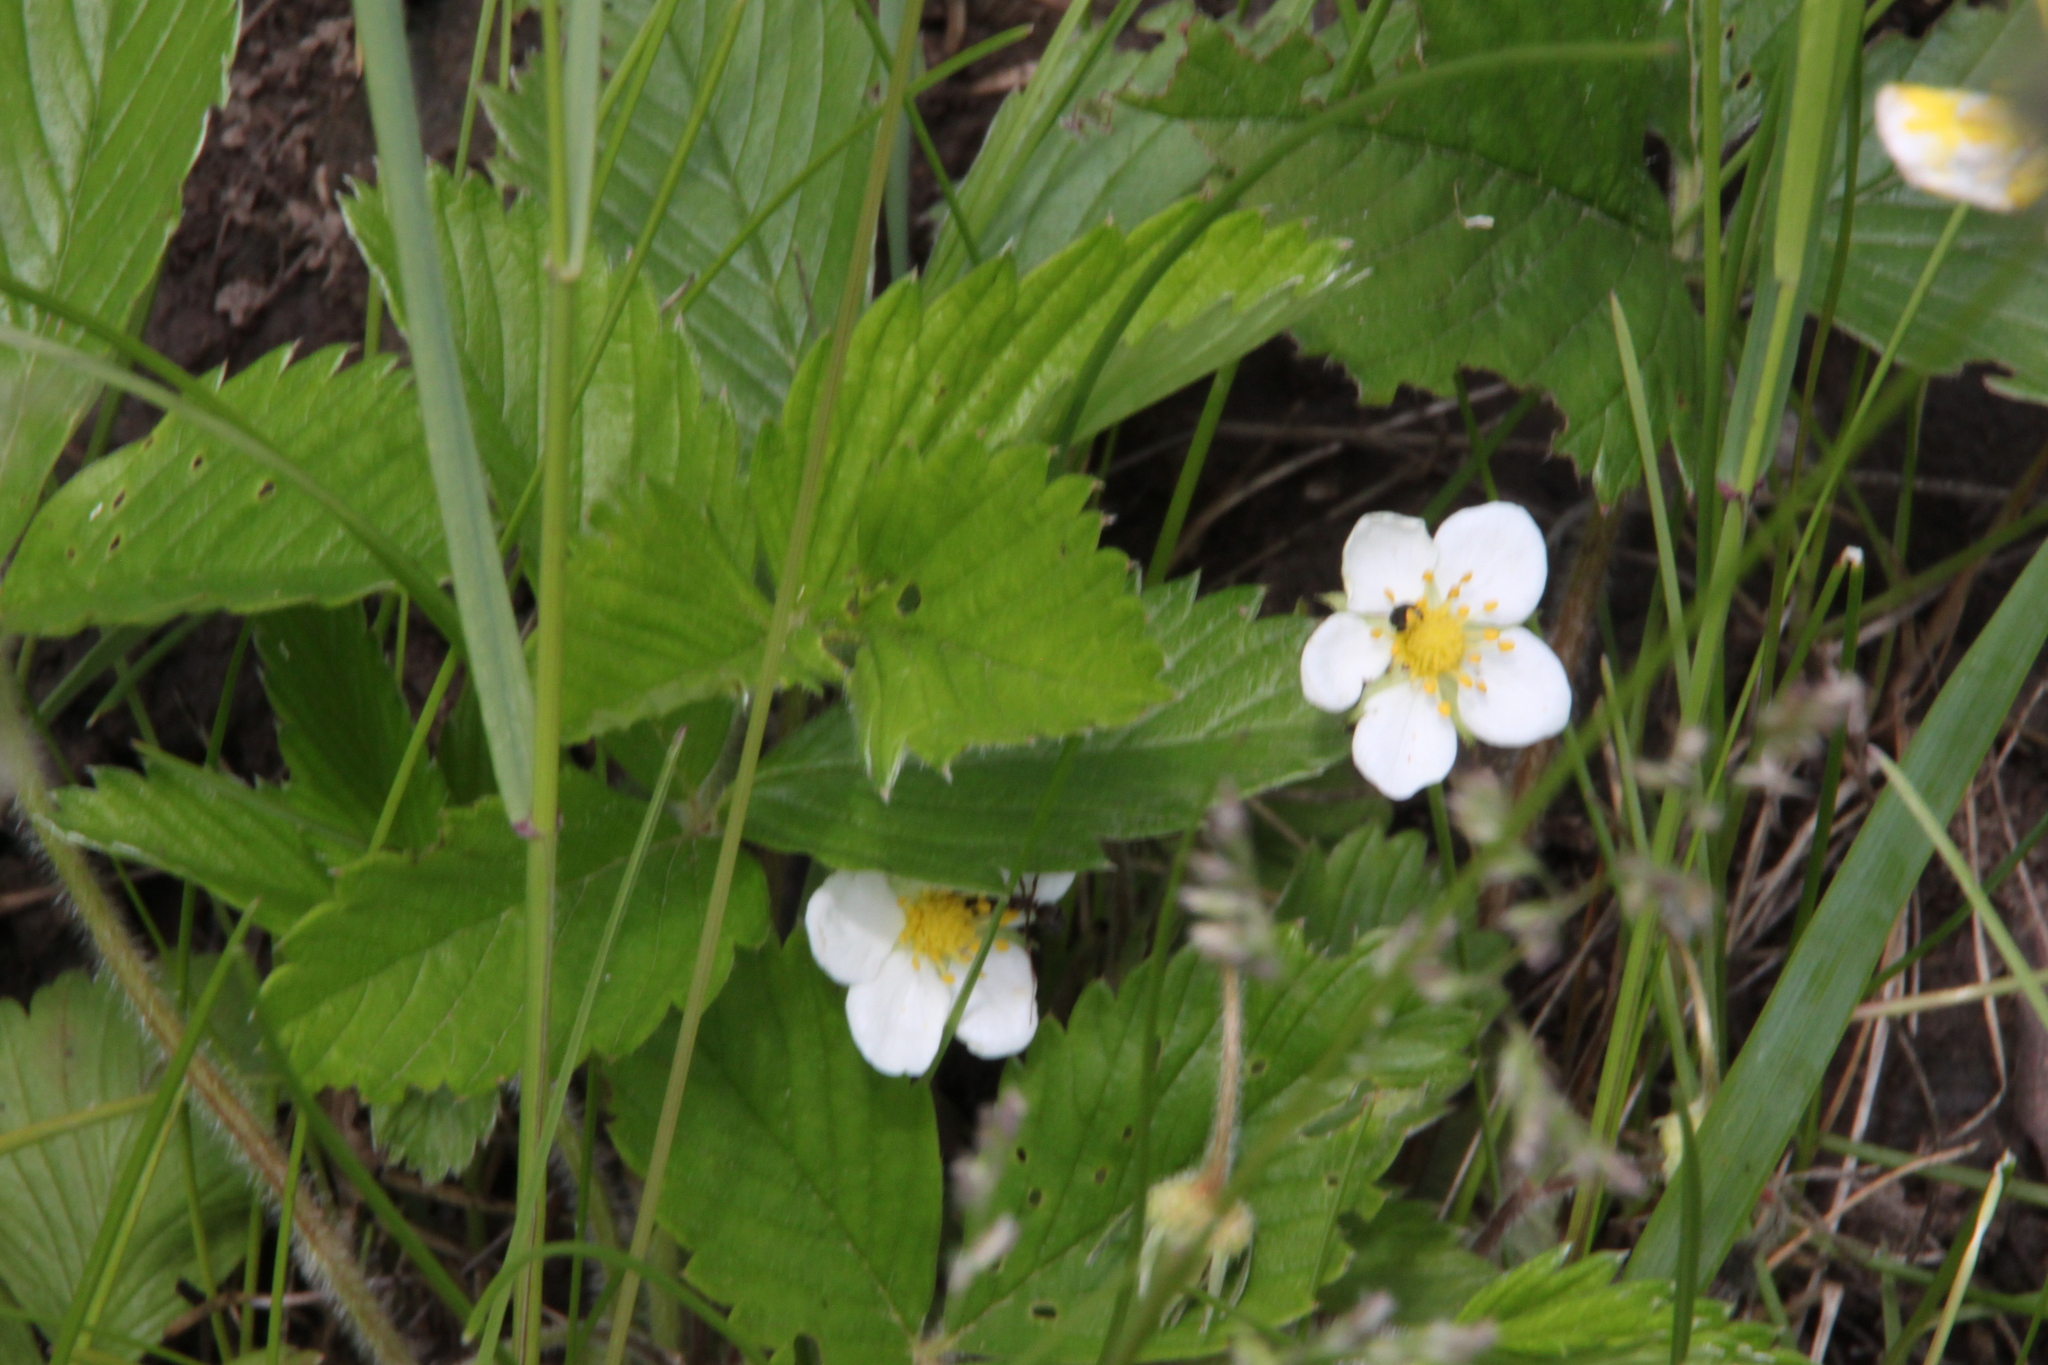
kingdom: Plantae
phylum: Tracheophyta
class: Magnoliopsida
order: Rosales
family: Rosaceae
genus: Fragaria
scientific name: Fragaria viridis
